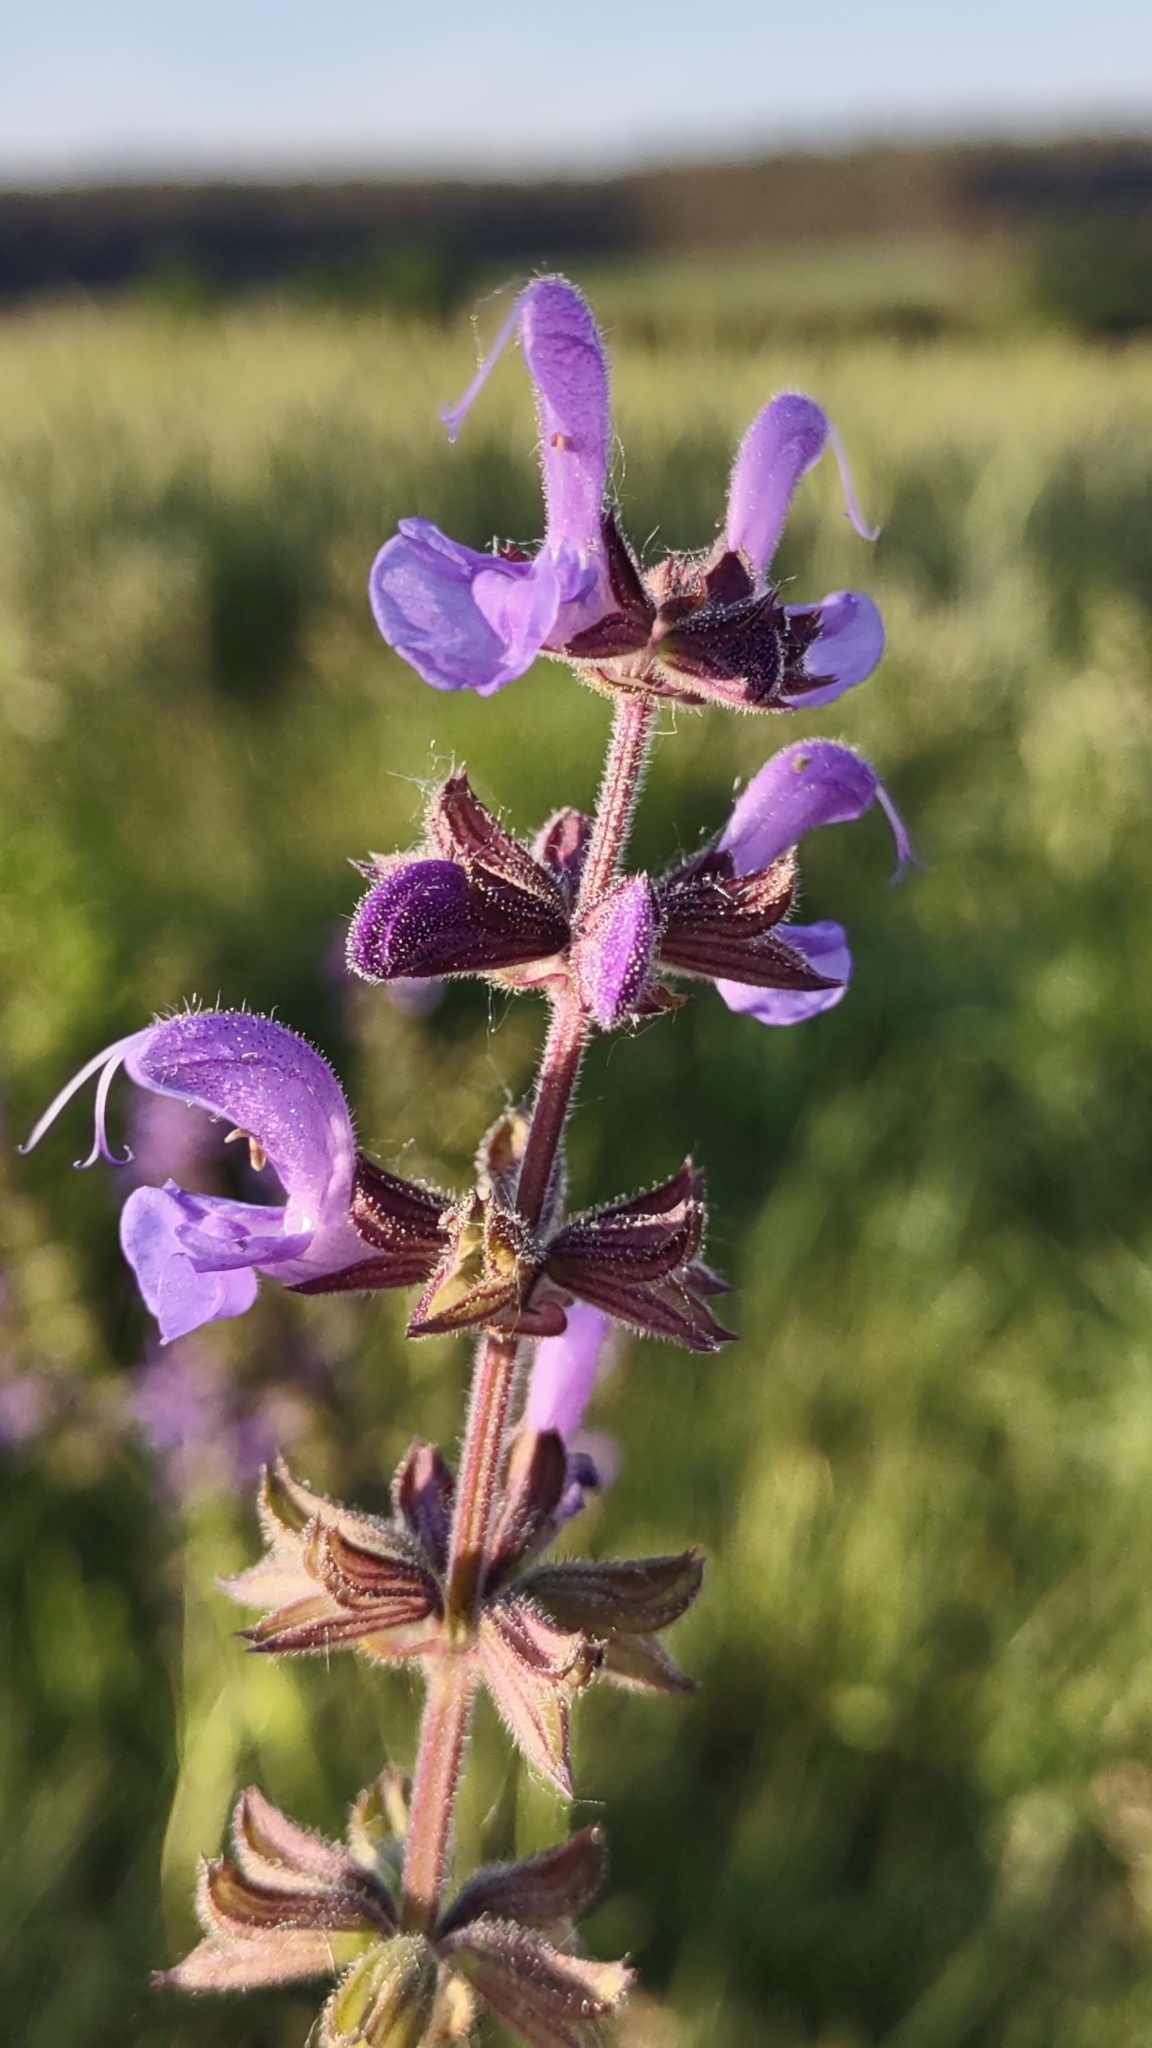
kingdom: Plantae
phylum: Tracheophyta
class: Magnoliopsida
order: Lamiales
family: Lamiaceae
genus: Salvia
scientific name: Salvia pratensis
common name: Meadow sage
